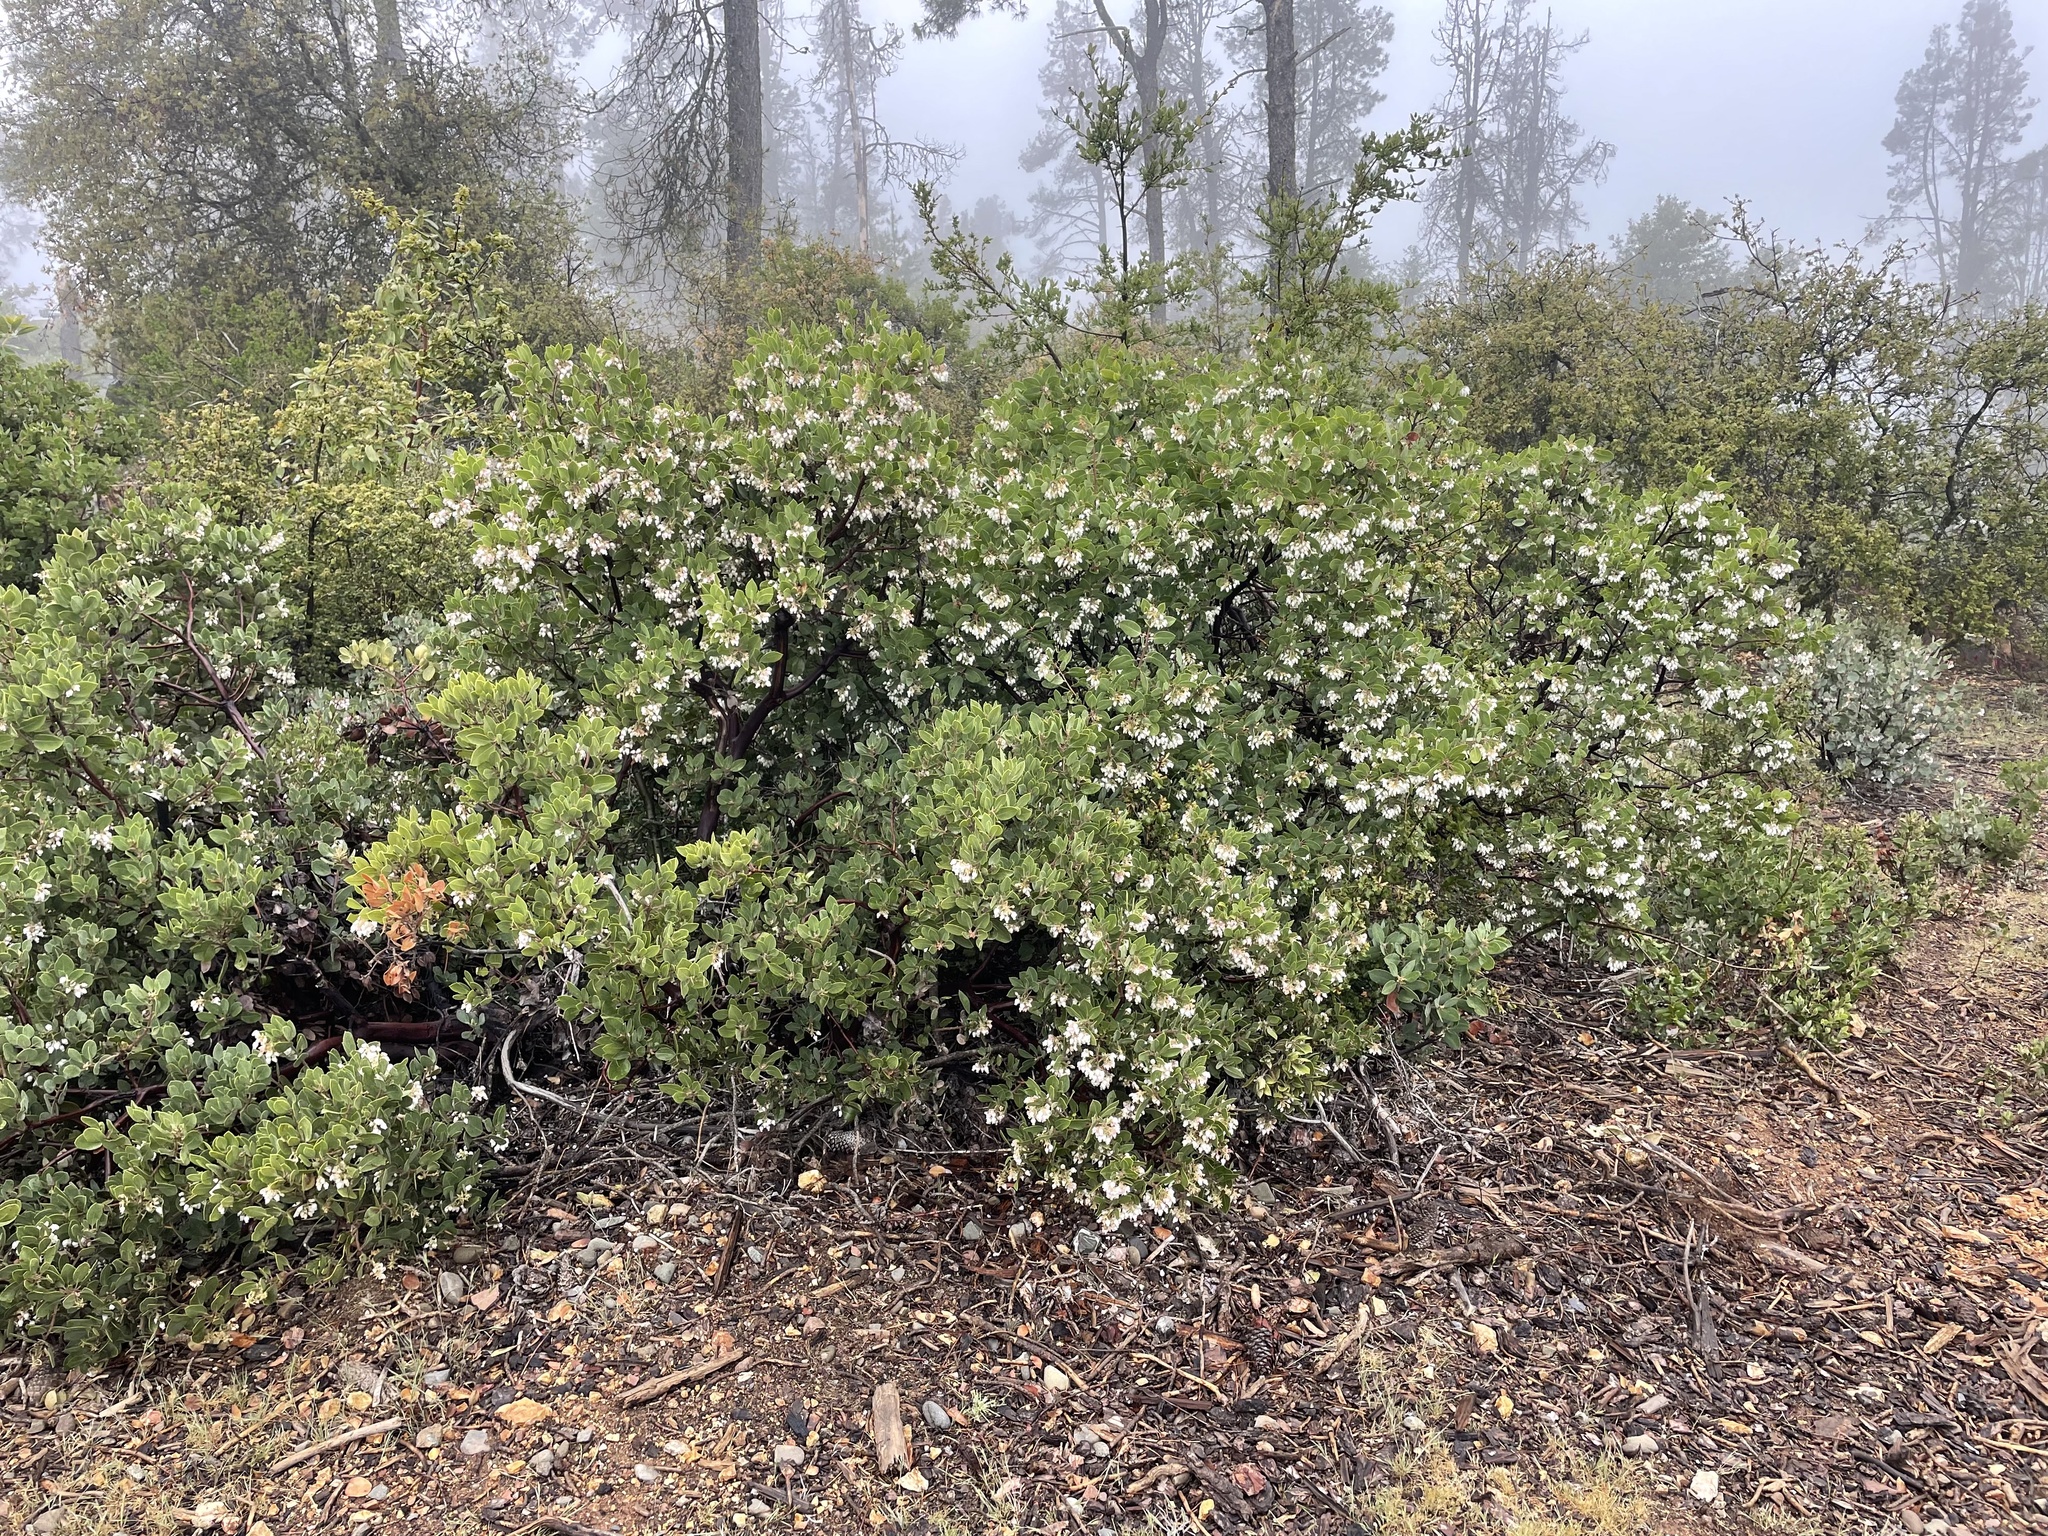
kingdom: Plantae
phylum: Tracheophyta
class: Magnoliopsida
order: Ericales
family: Ericaceae
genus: Arctostaphylos
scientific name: Arctostaphylos glandulosa
